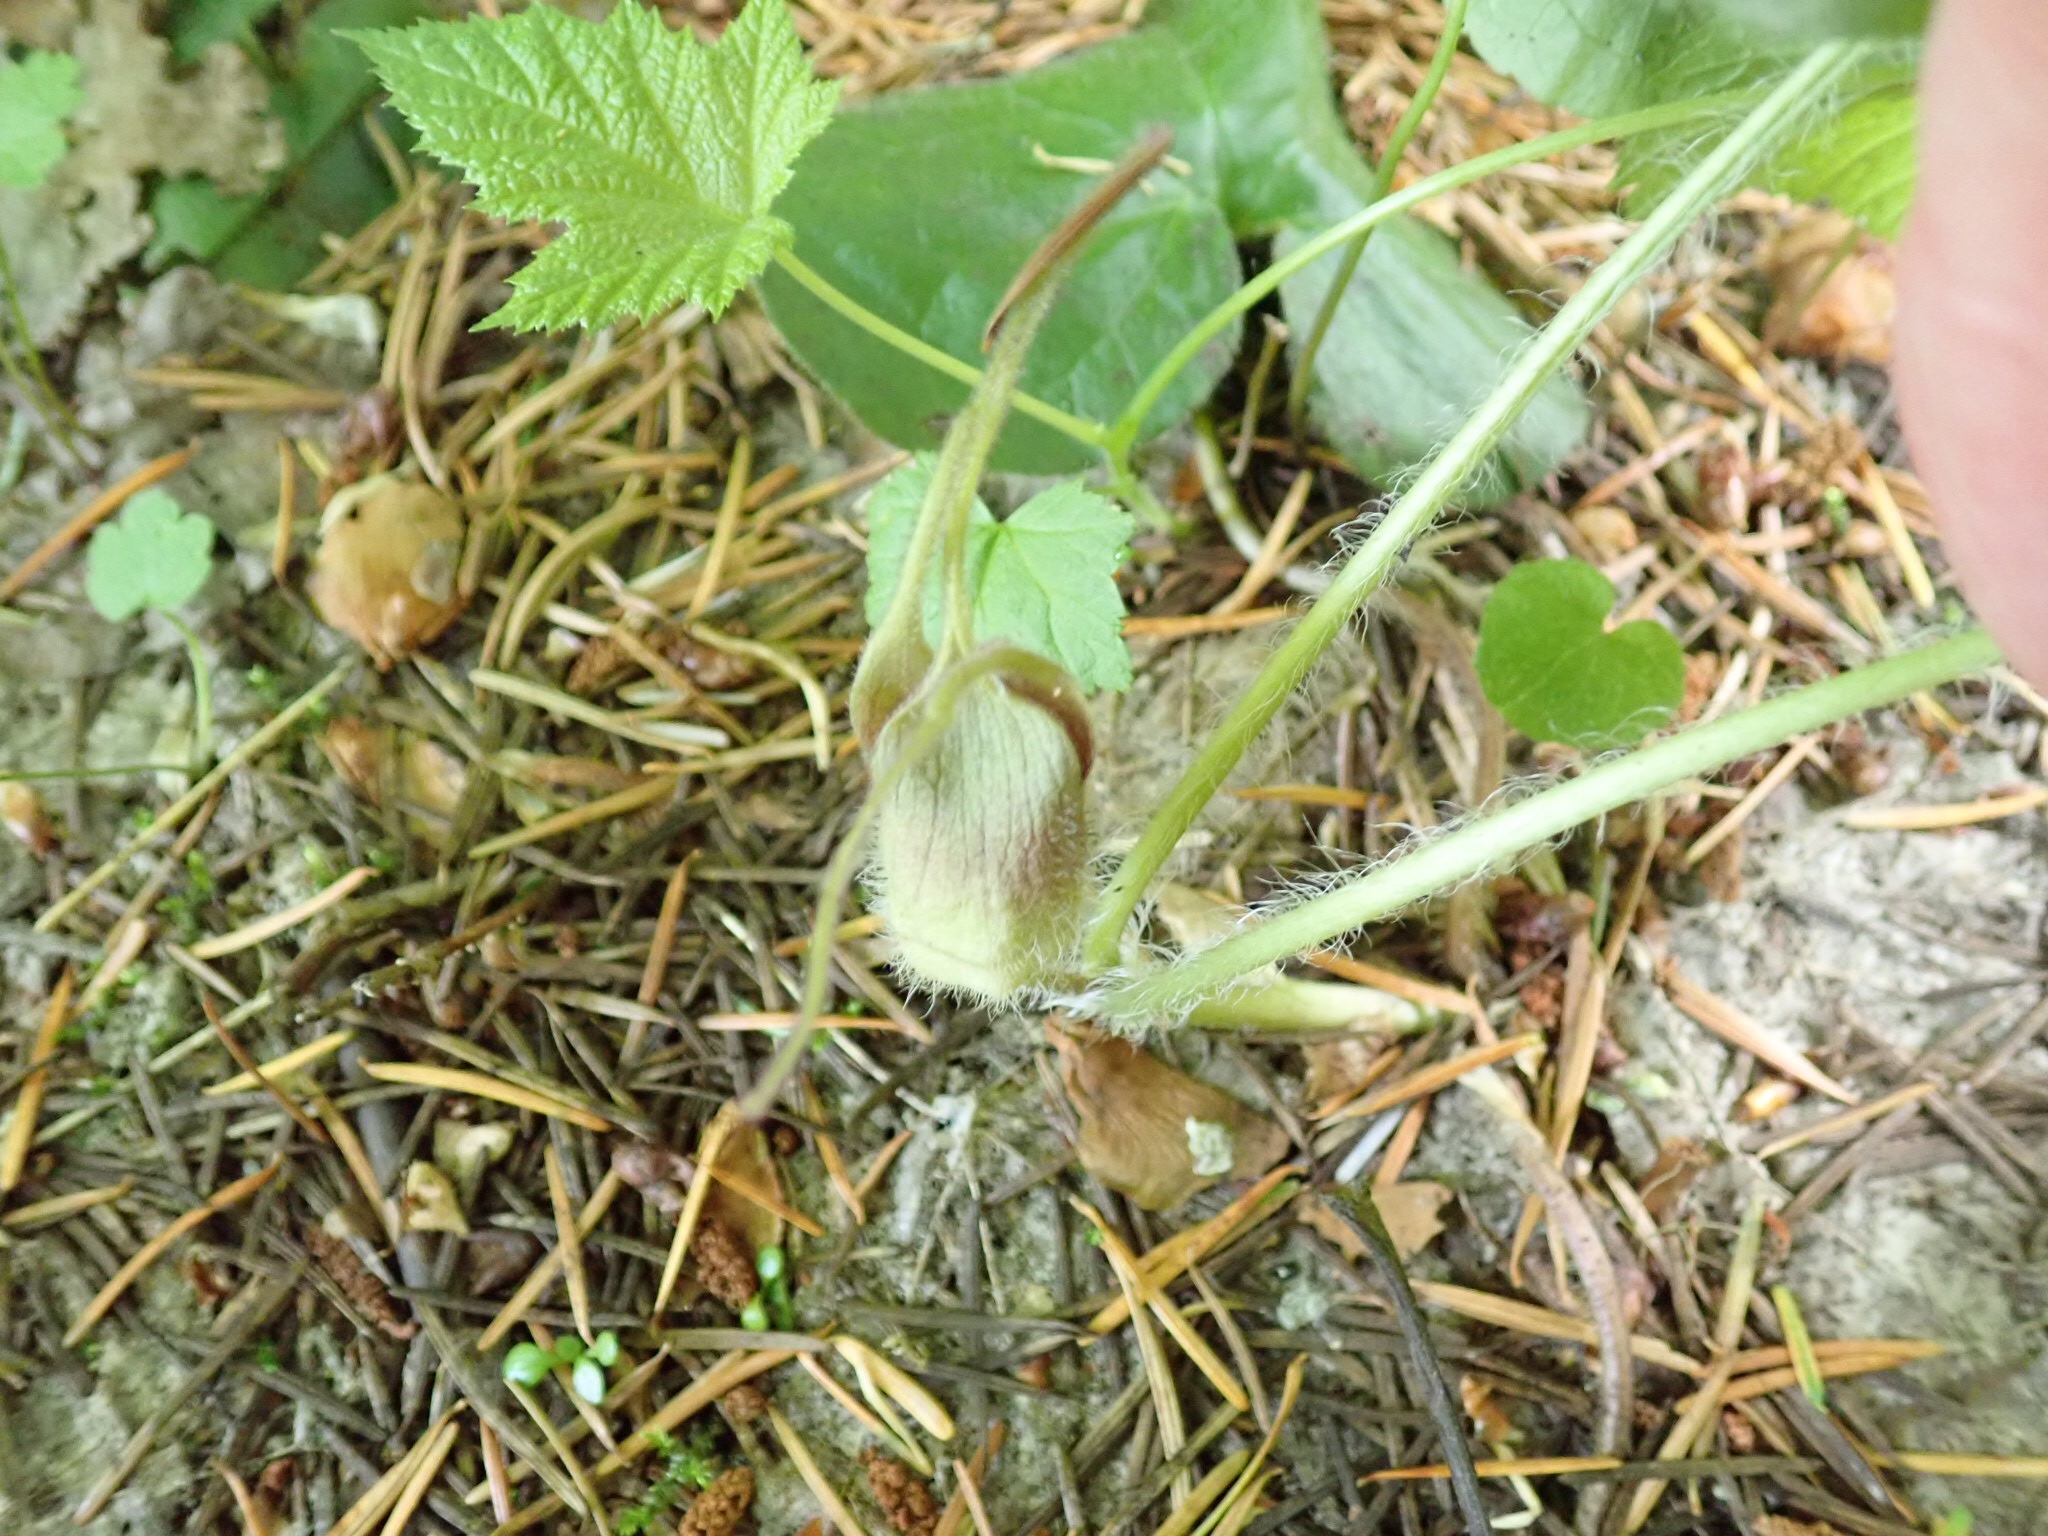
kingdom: Plantae
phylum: Tracheophyta
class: Magnoliopsida
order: Piperales
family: Aristolochiaceae
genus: Asarum
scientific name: Asarum caudatum
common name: Wild ginger
